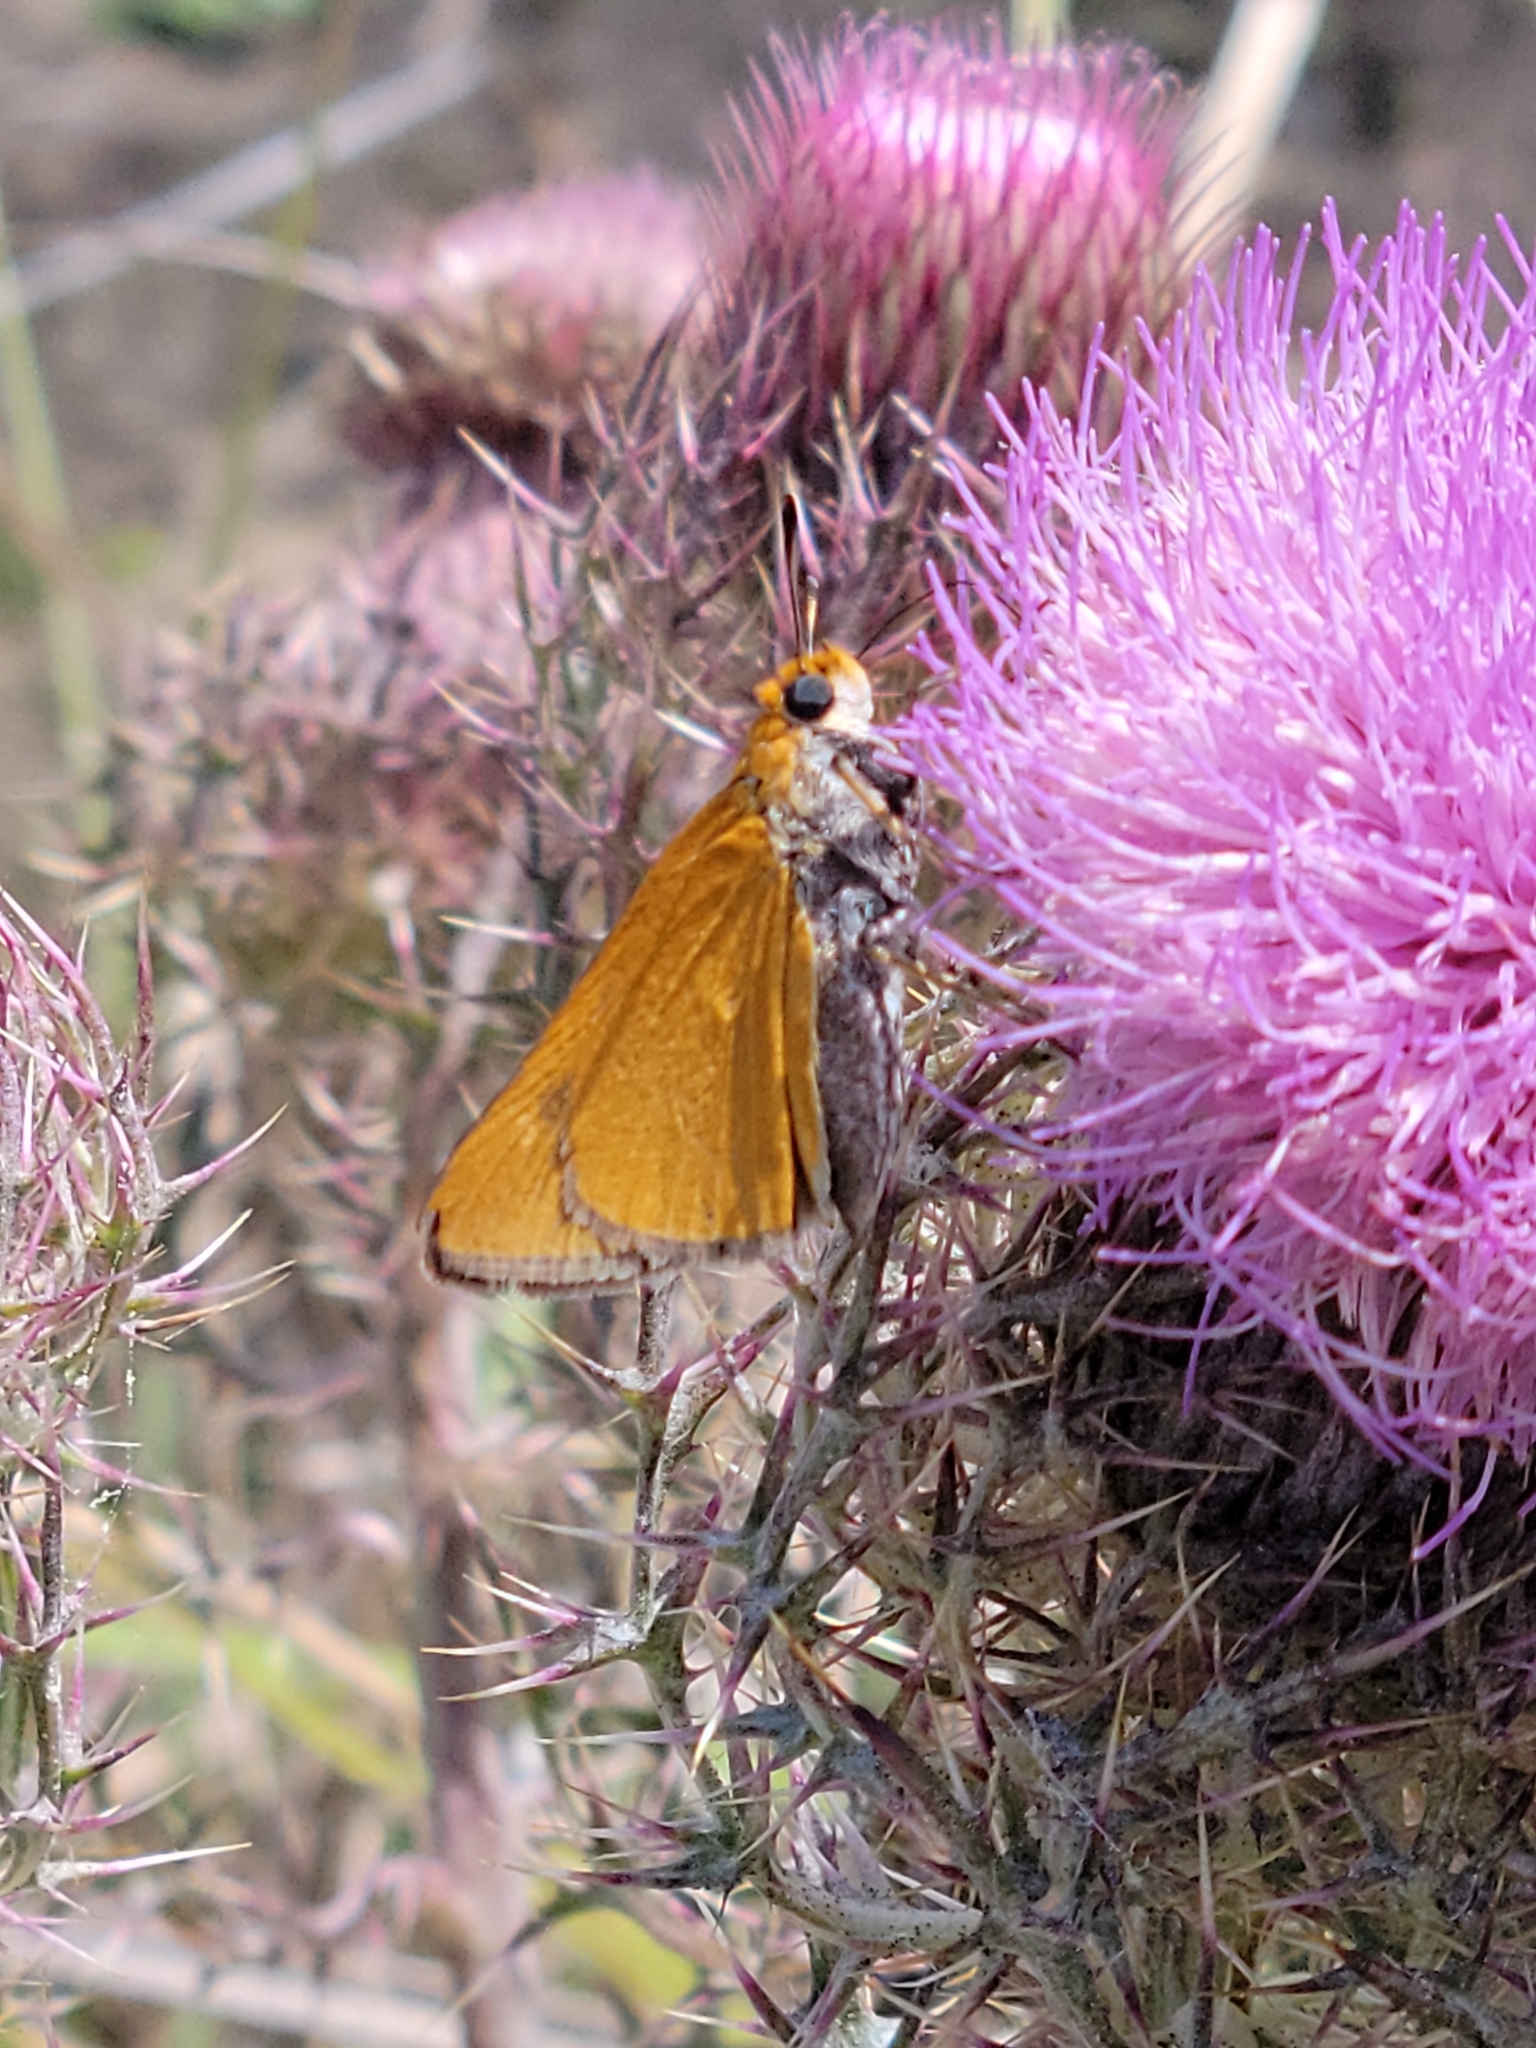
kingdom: Animalia
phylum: Arthropoda
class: Insecta
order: Lepidoptera
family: Hesperiidae
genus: Euphyes
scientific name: Euphyes arpa
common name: Palmetto skipper
